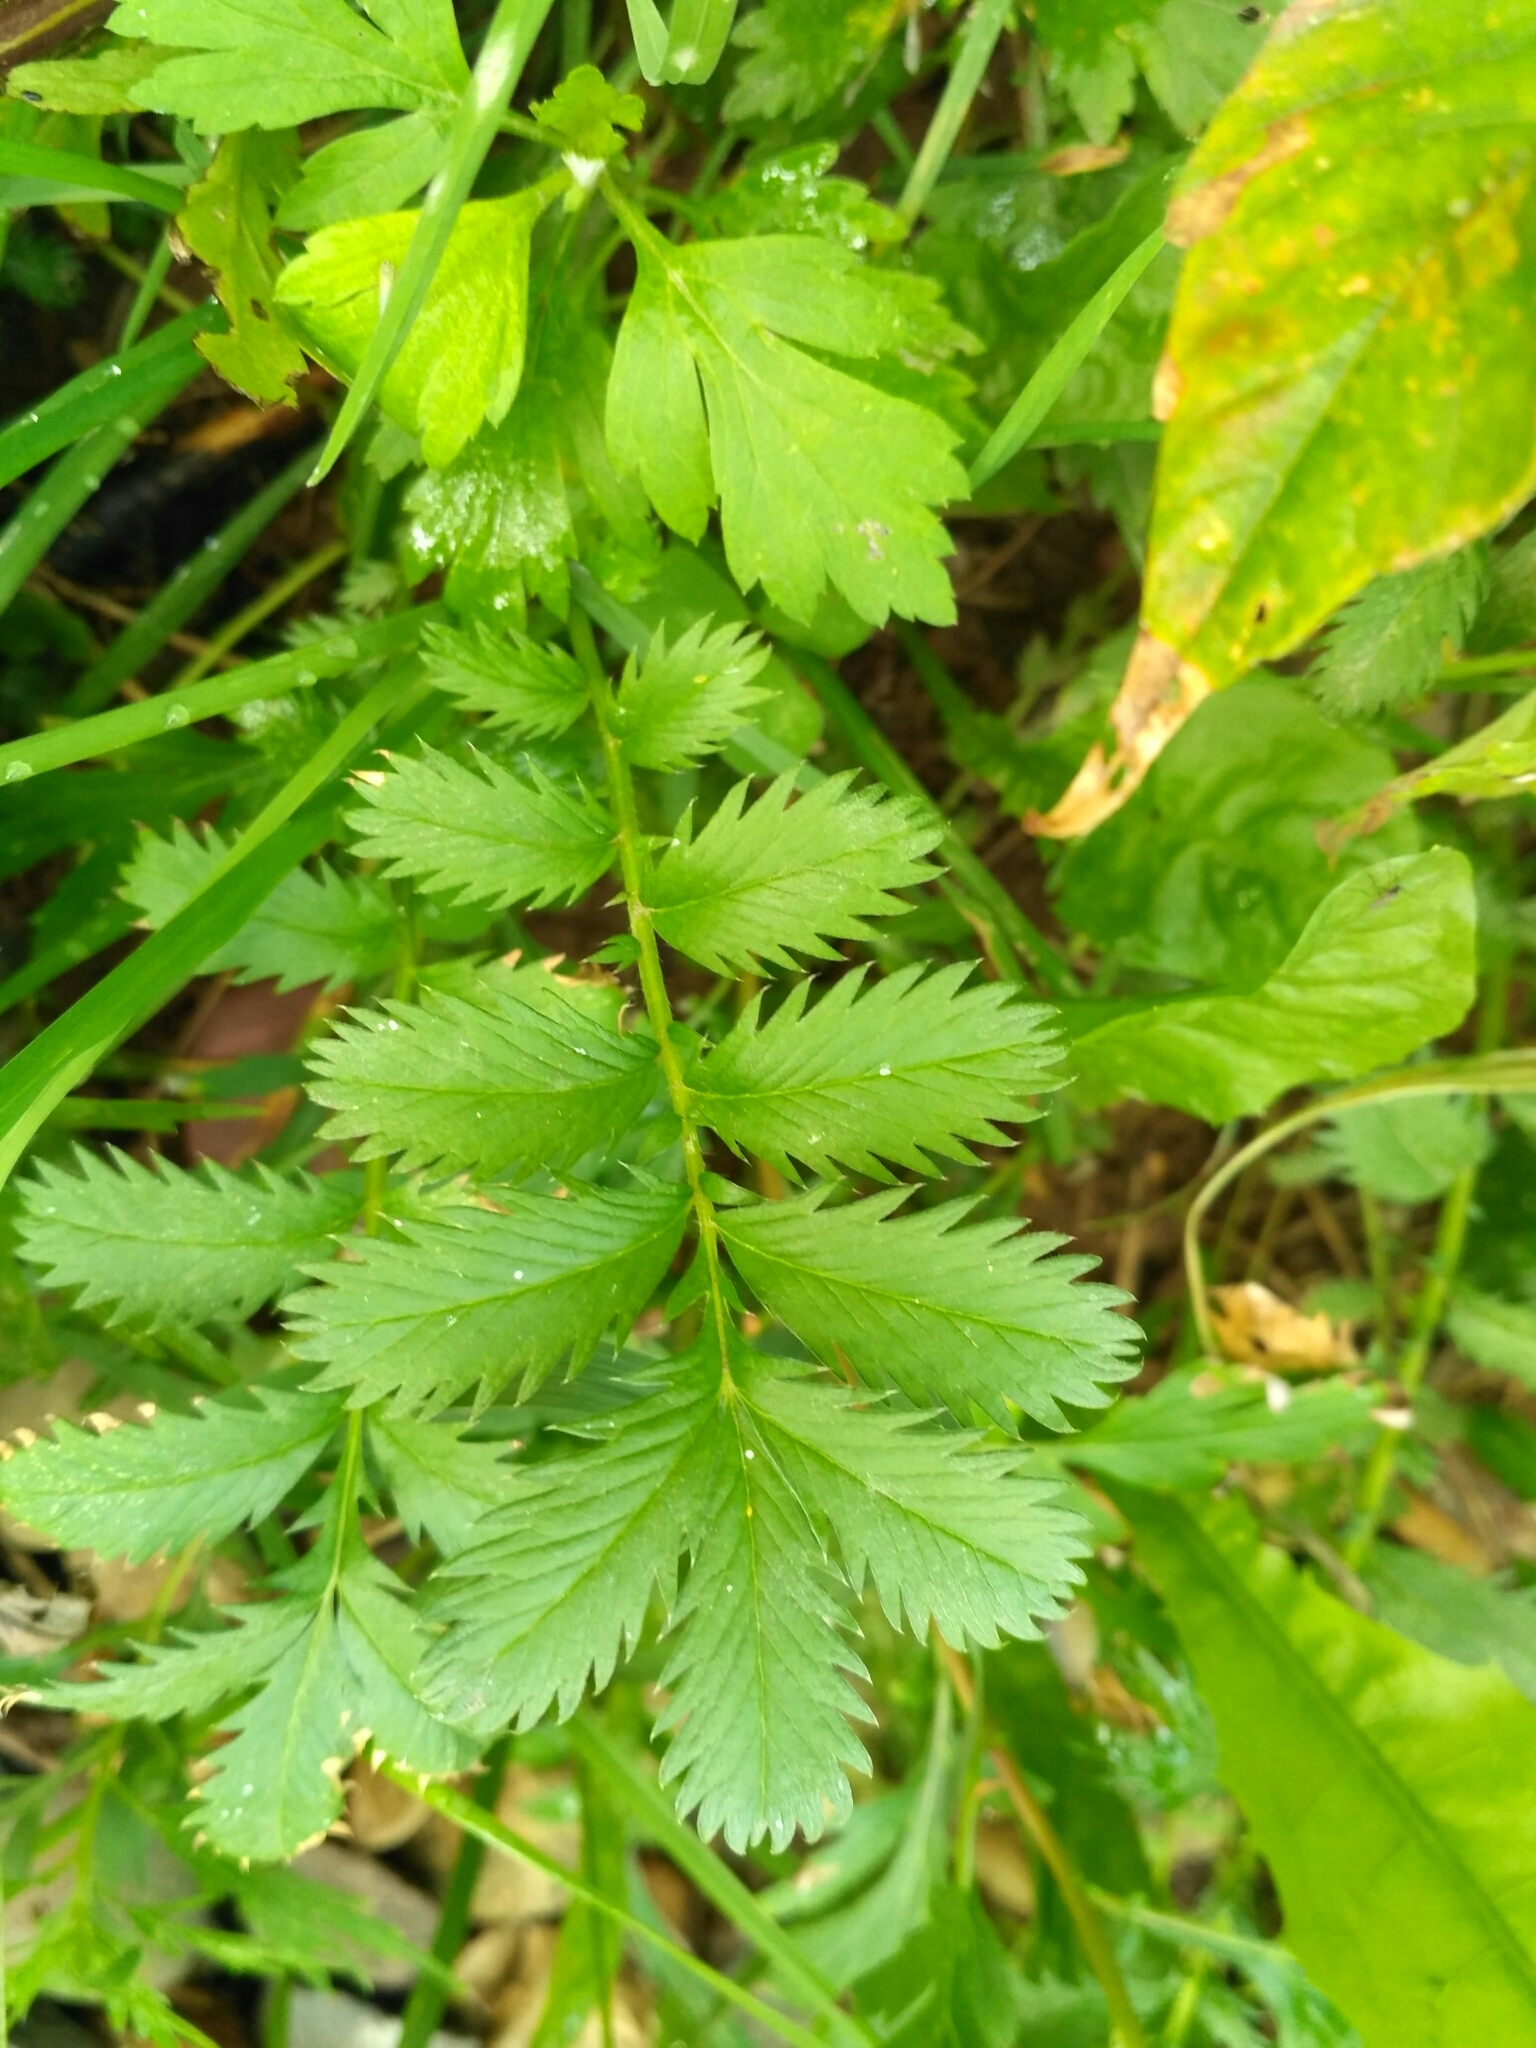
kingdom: Plantae
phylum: Tracheophyta
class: Magnoliopsida
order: Rosales
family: Rosaceae
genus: Argentina
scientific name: Argentina anserina
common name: Common silverweed
